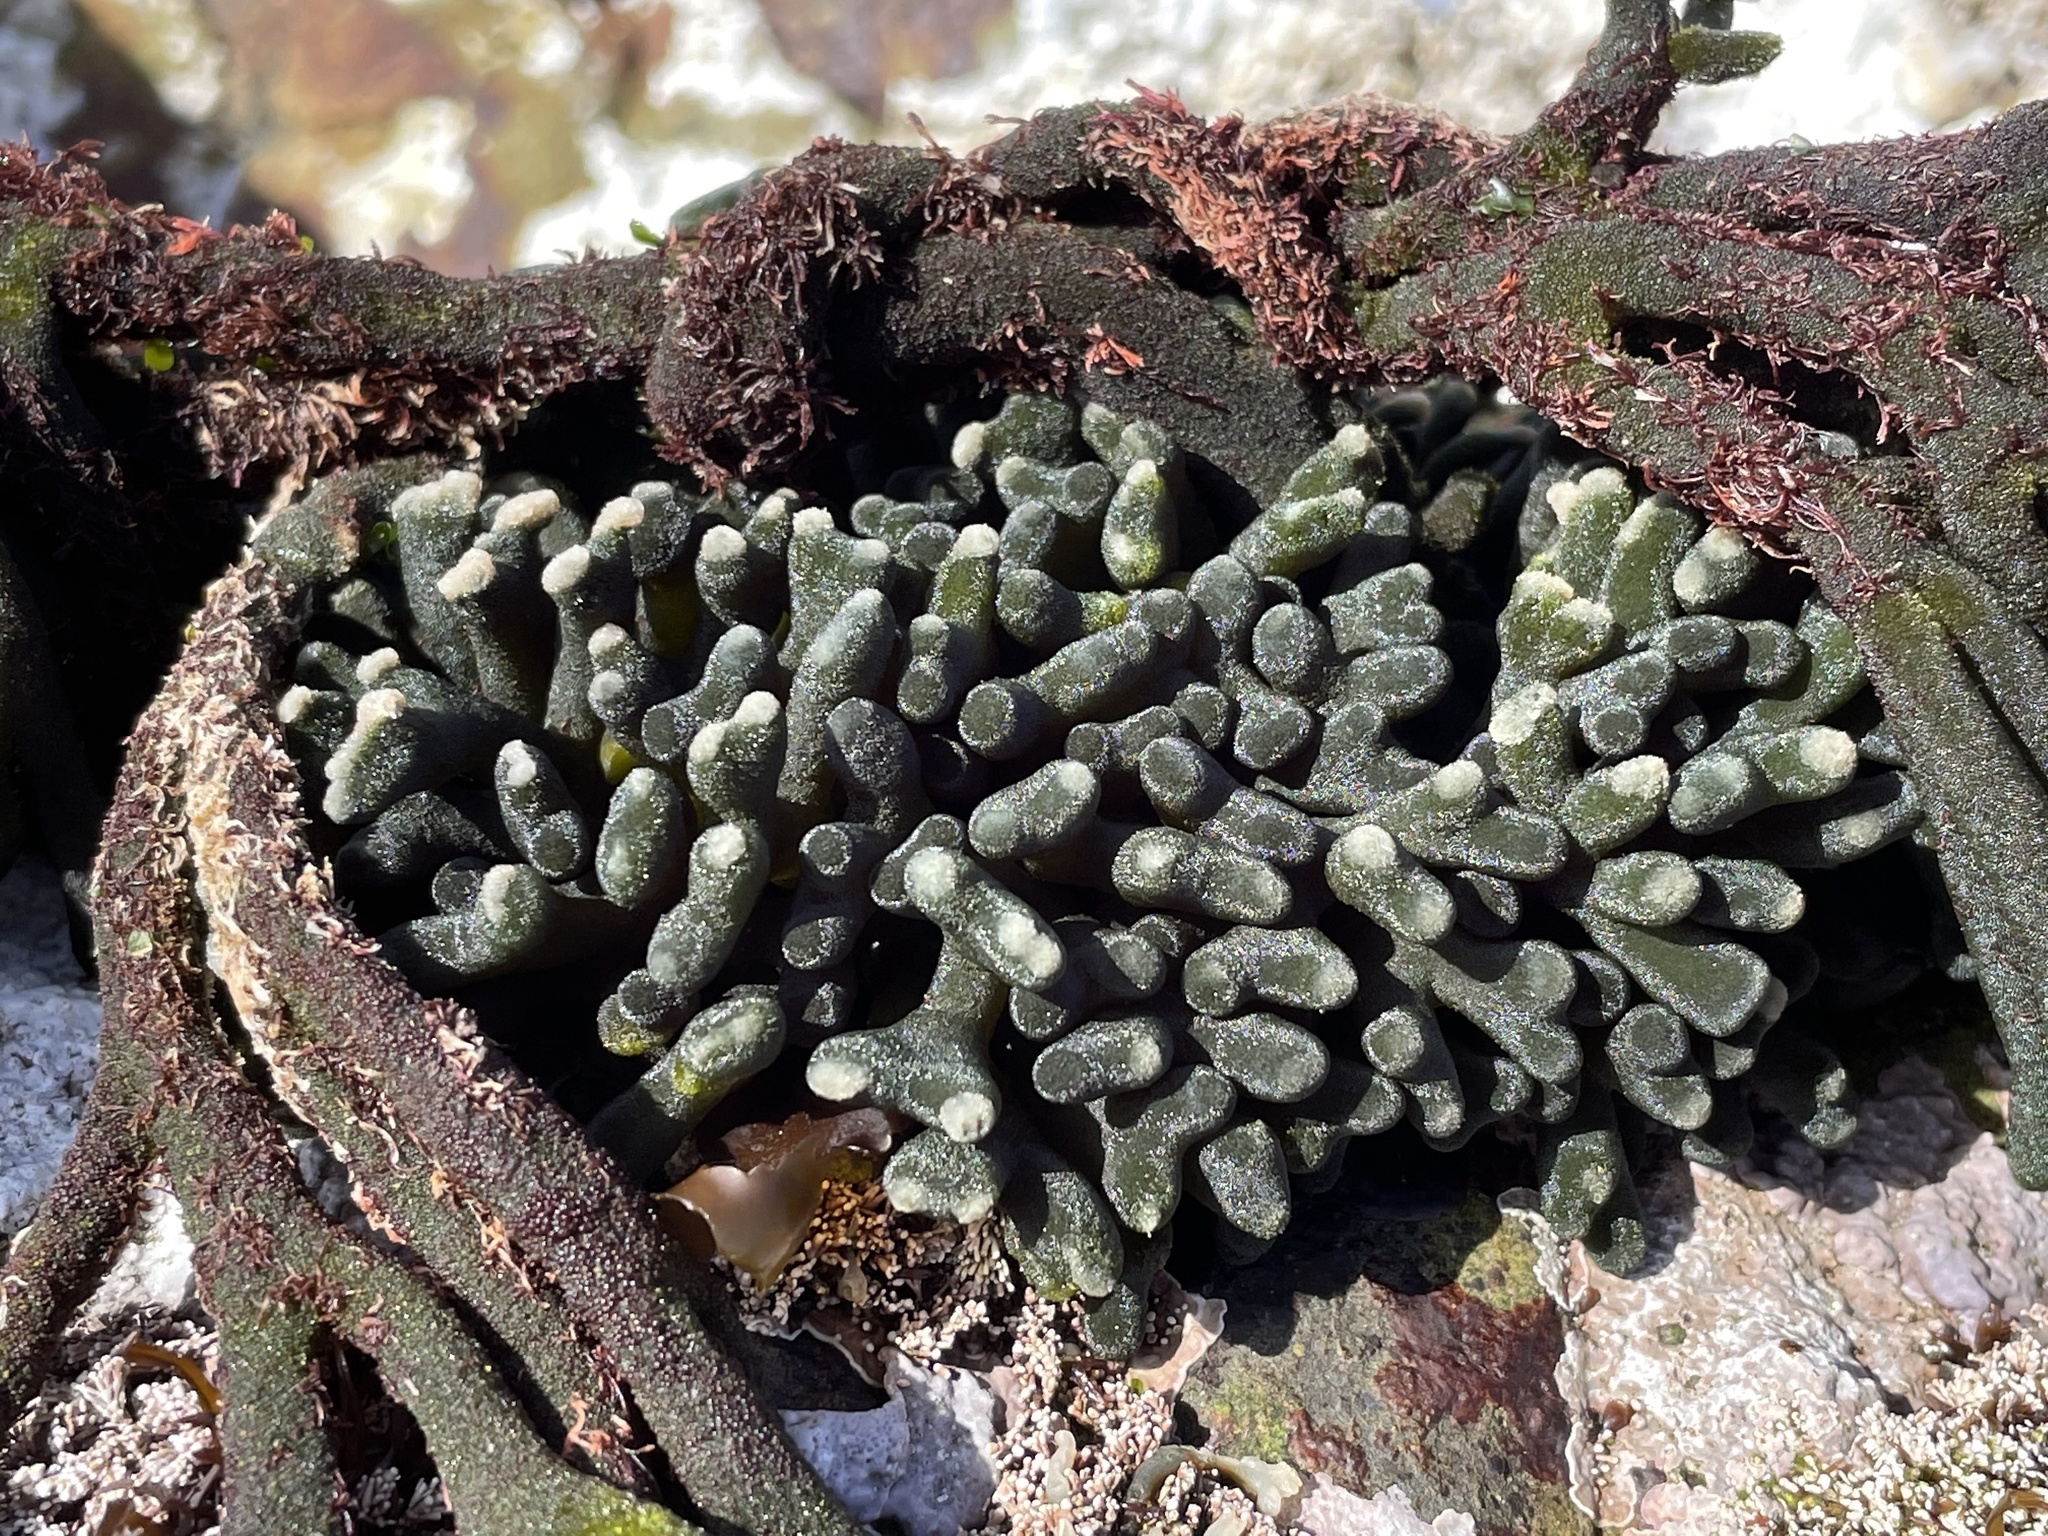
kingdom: Plantae
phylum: Chlorophyta
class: Ulvophyceae
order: Bryopsidales
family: Codiaceae
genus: Codium
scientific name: Codium fragile
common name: Dead man's fingers
